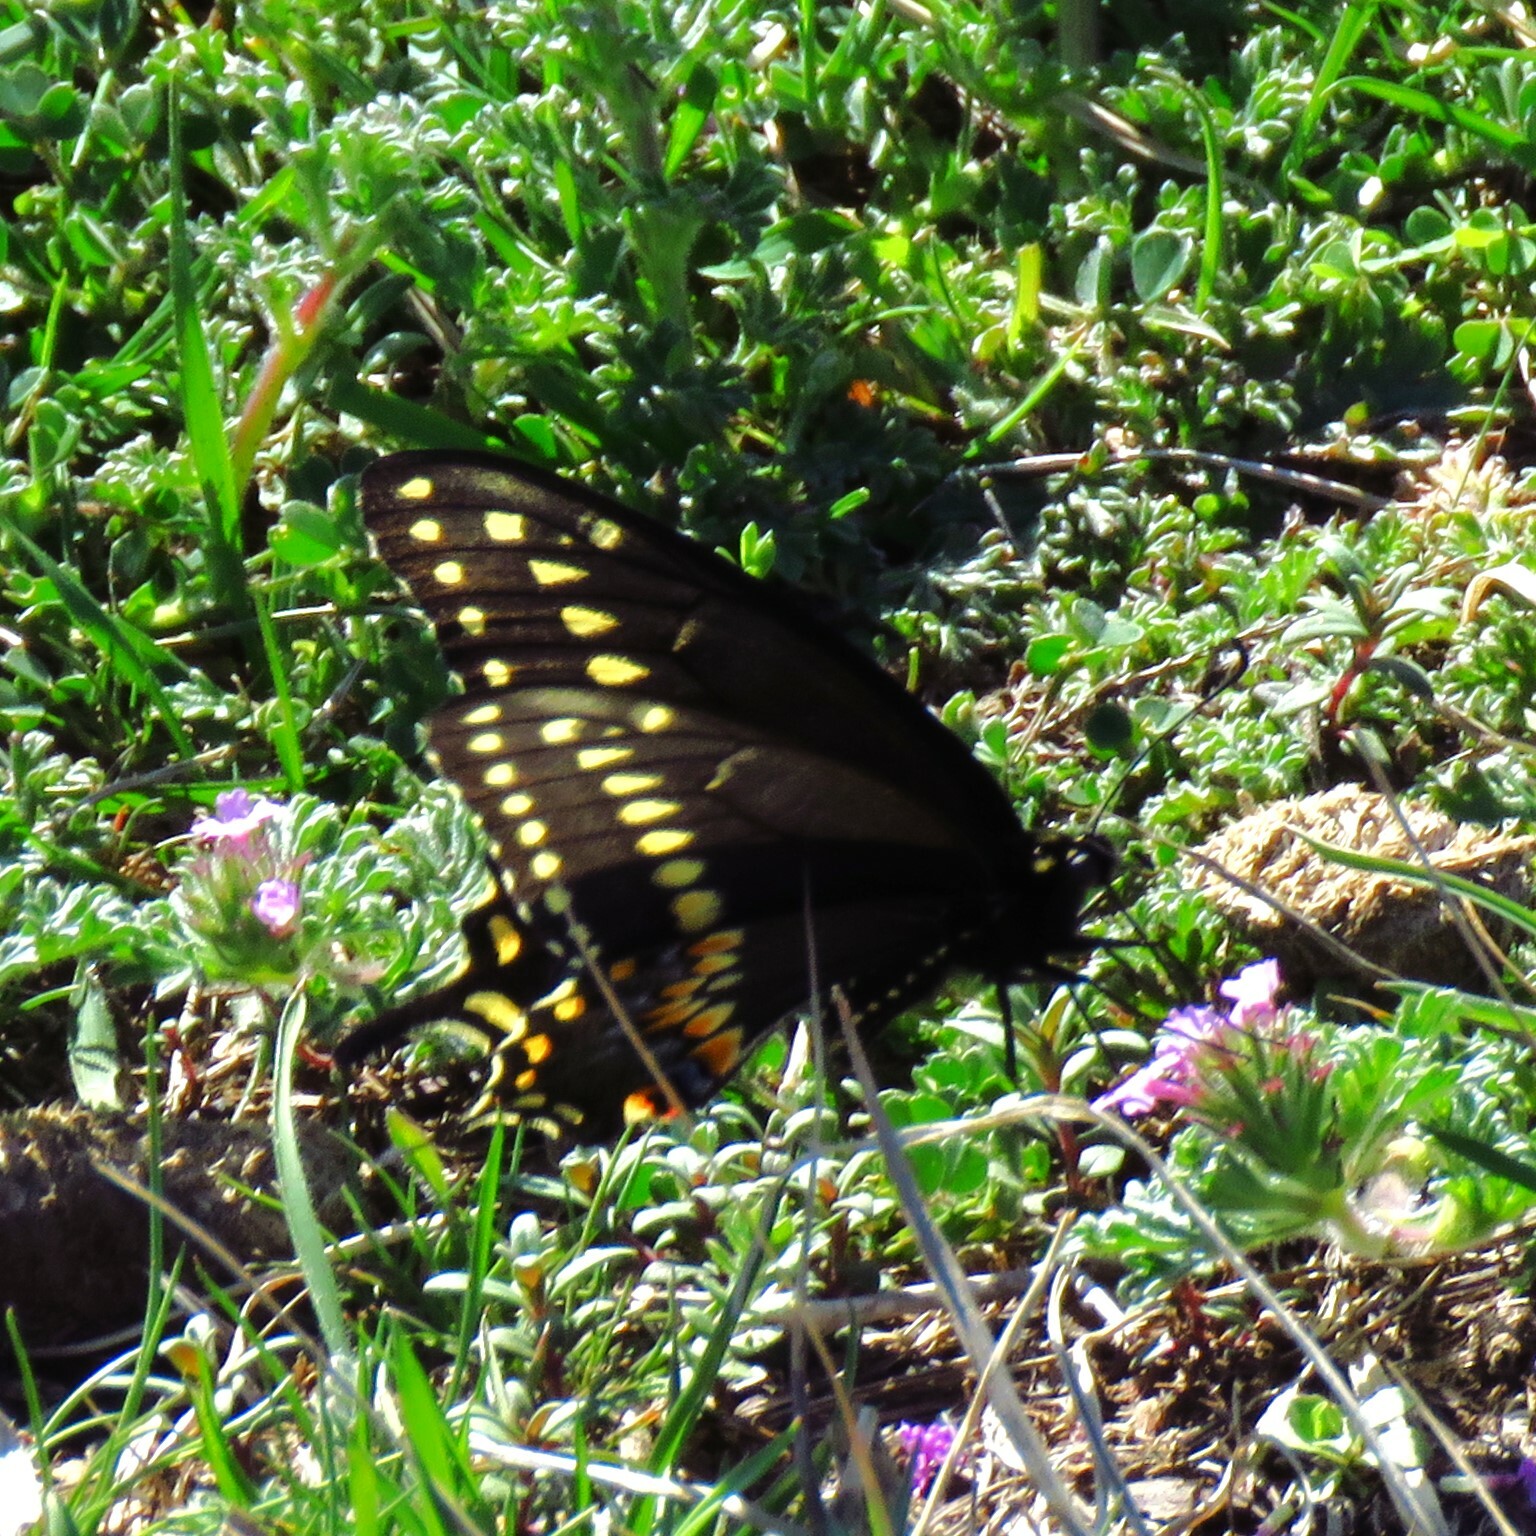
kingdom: Animalia
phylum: Arthropoda
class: Insecta
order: Lepidoptera
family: Papilionidae
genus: Papilio
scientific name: Papilio polyxenes
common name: Black swallowtail
